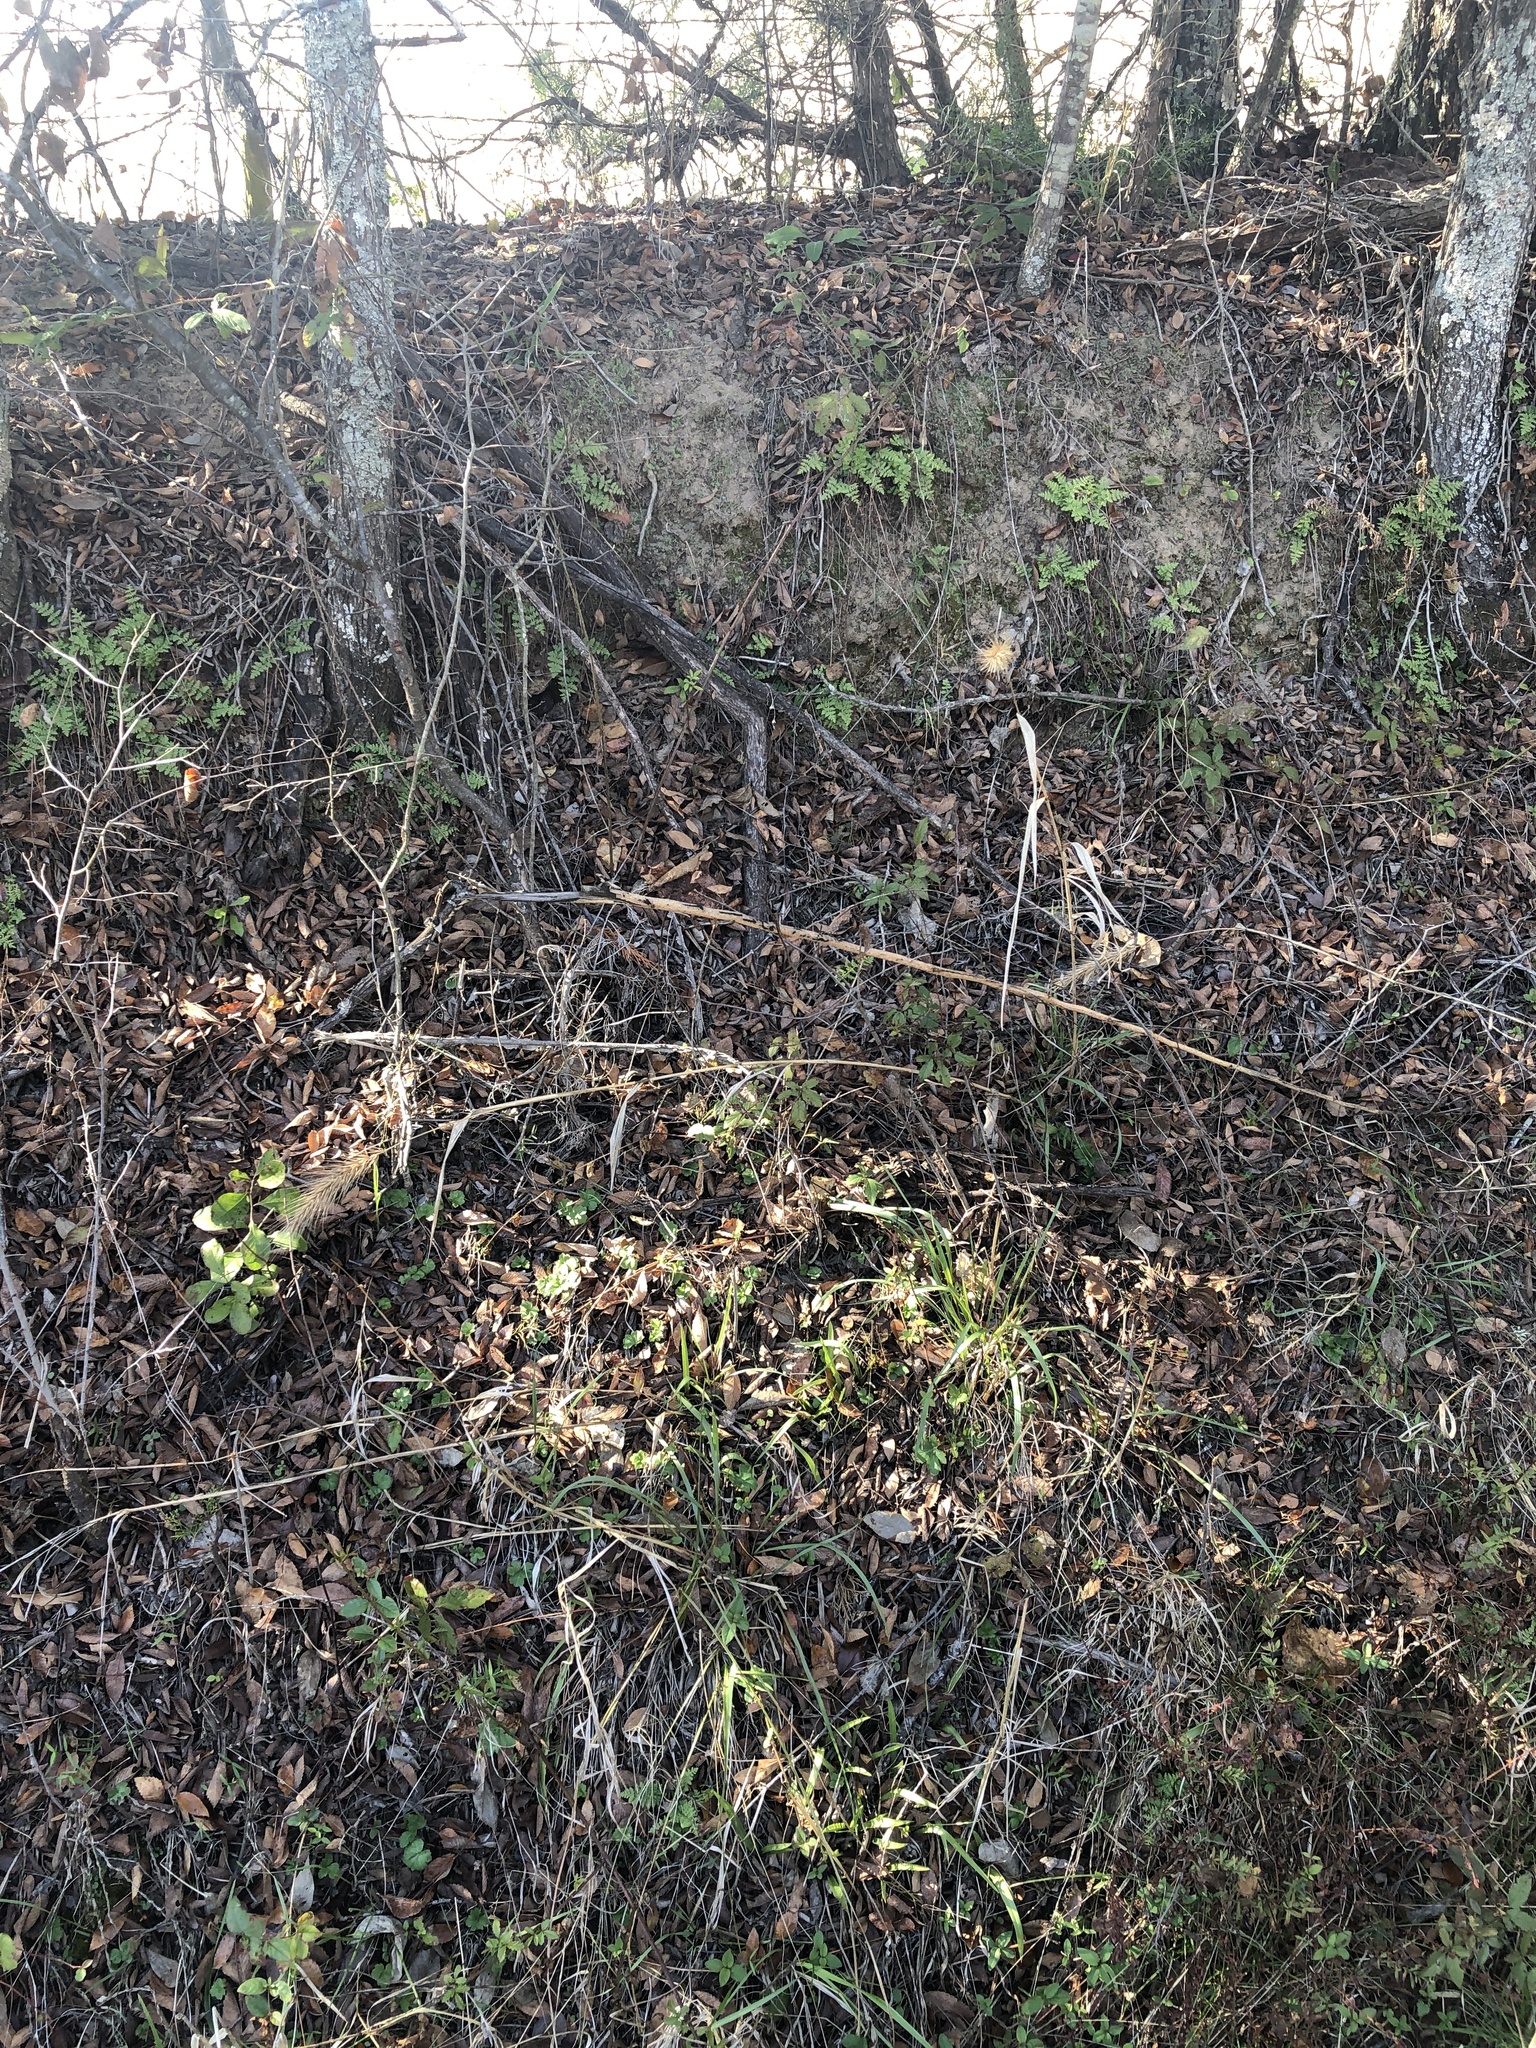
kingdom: Plantae
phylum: Tracheophyta
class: Liliopsida
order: Poales
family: Poaceae
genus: Elymus
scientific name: Elymus virginicus
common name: Common eastern wildrye
